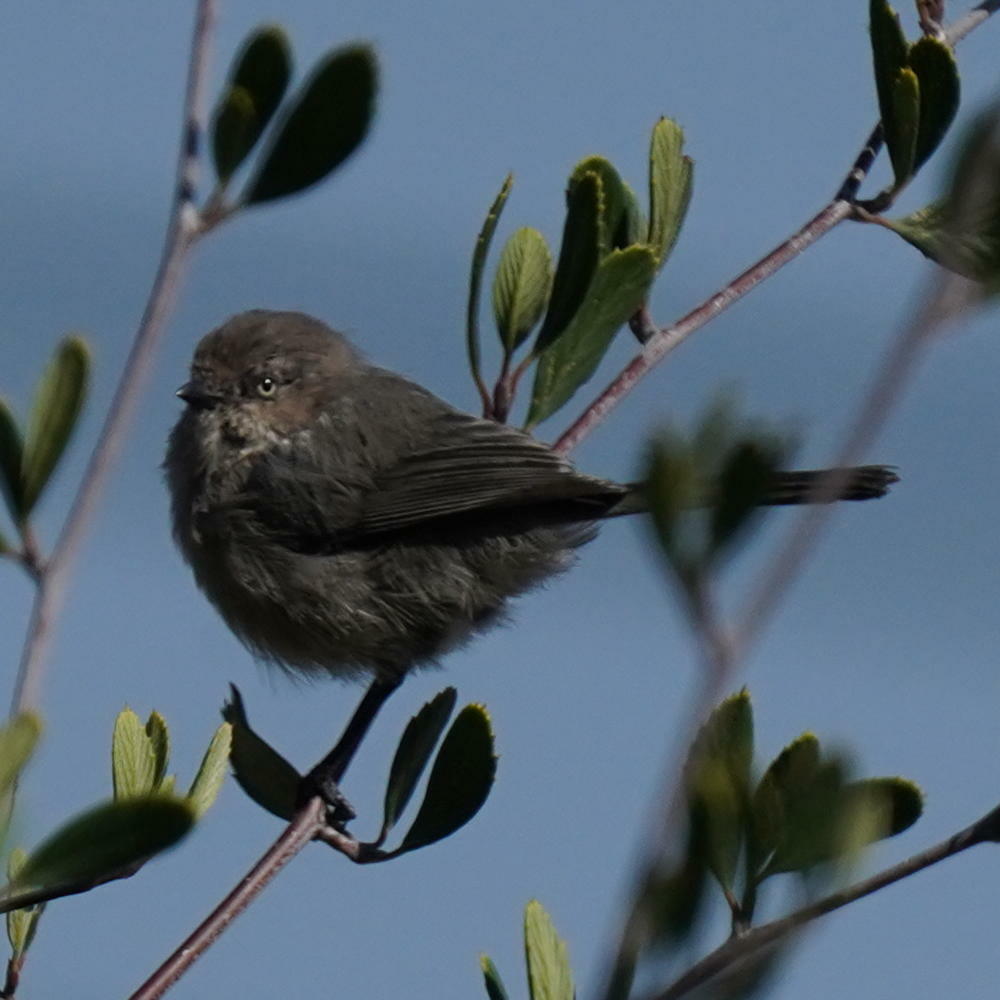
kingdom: Animalia
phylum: Chordata
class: Aves
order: Passeriformes
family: Aegithalidae
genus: Psaltriparus
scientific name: Psaltriparus minimus
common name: American bushtit
